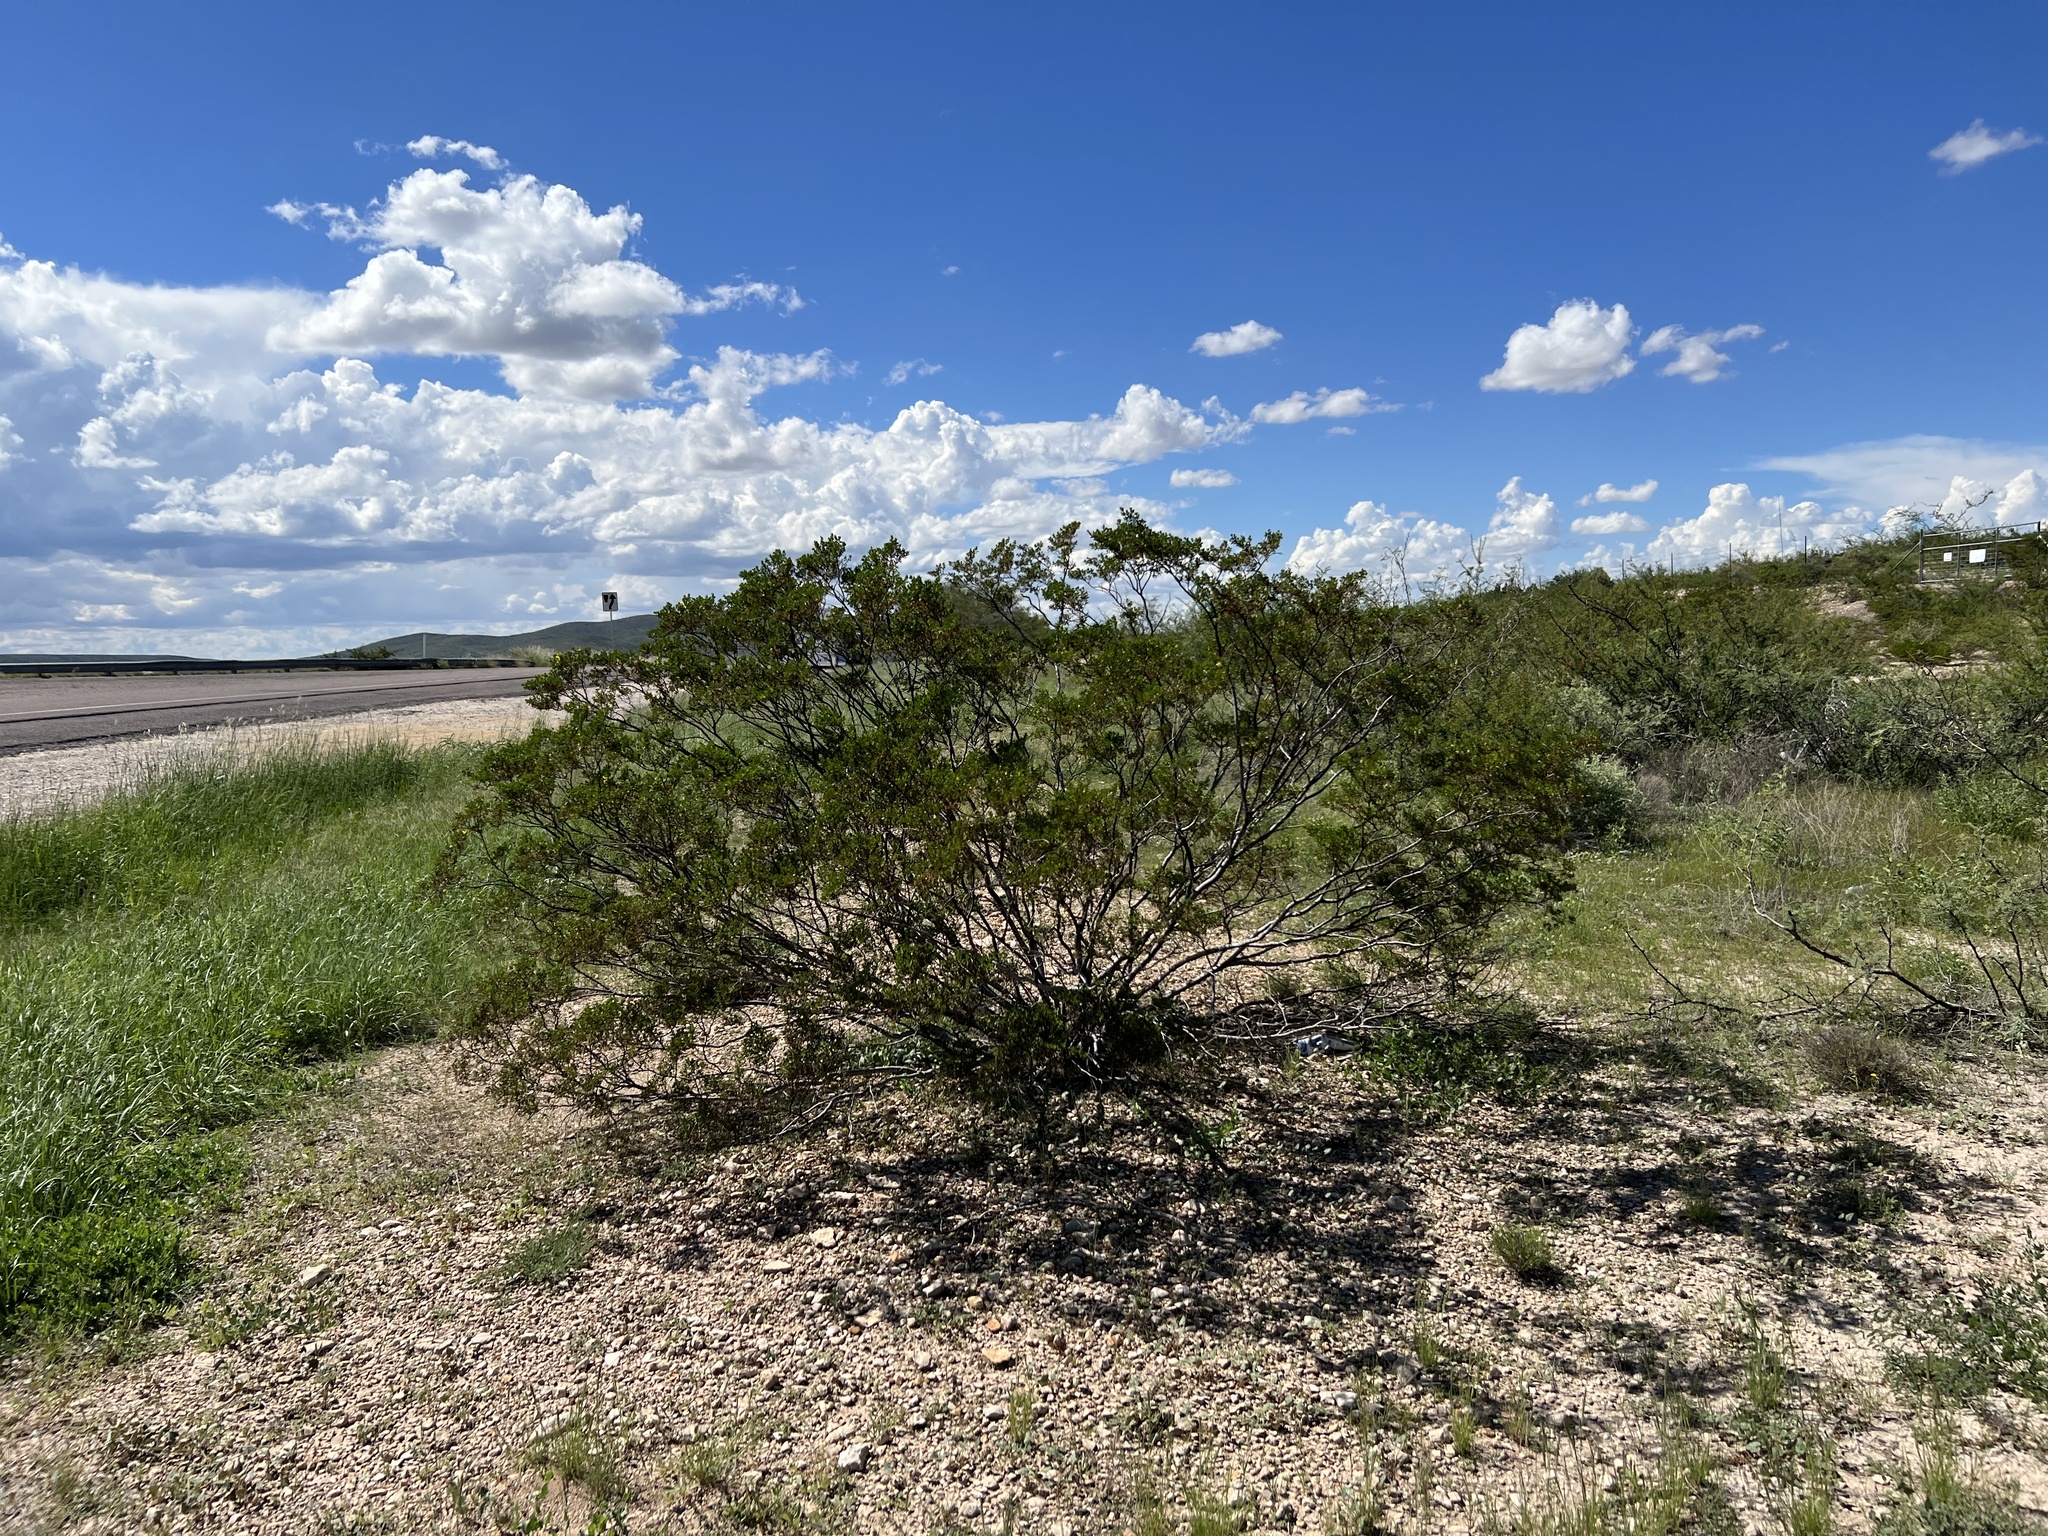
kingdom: Plantae
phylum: Tracheophyta
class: Magnoliopsida
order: Zygophyllales
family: Zygophyllaceae
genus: Larrea
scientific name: Larrea tridentata
